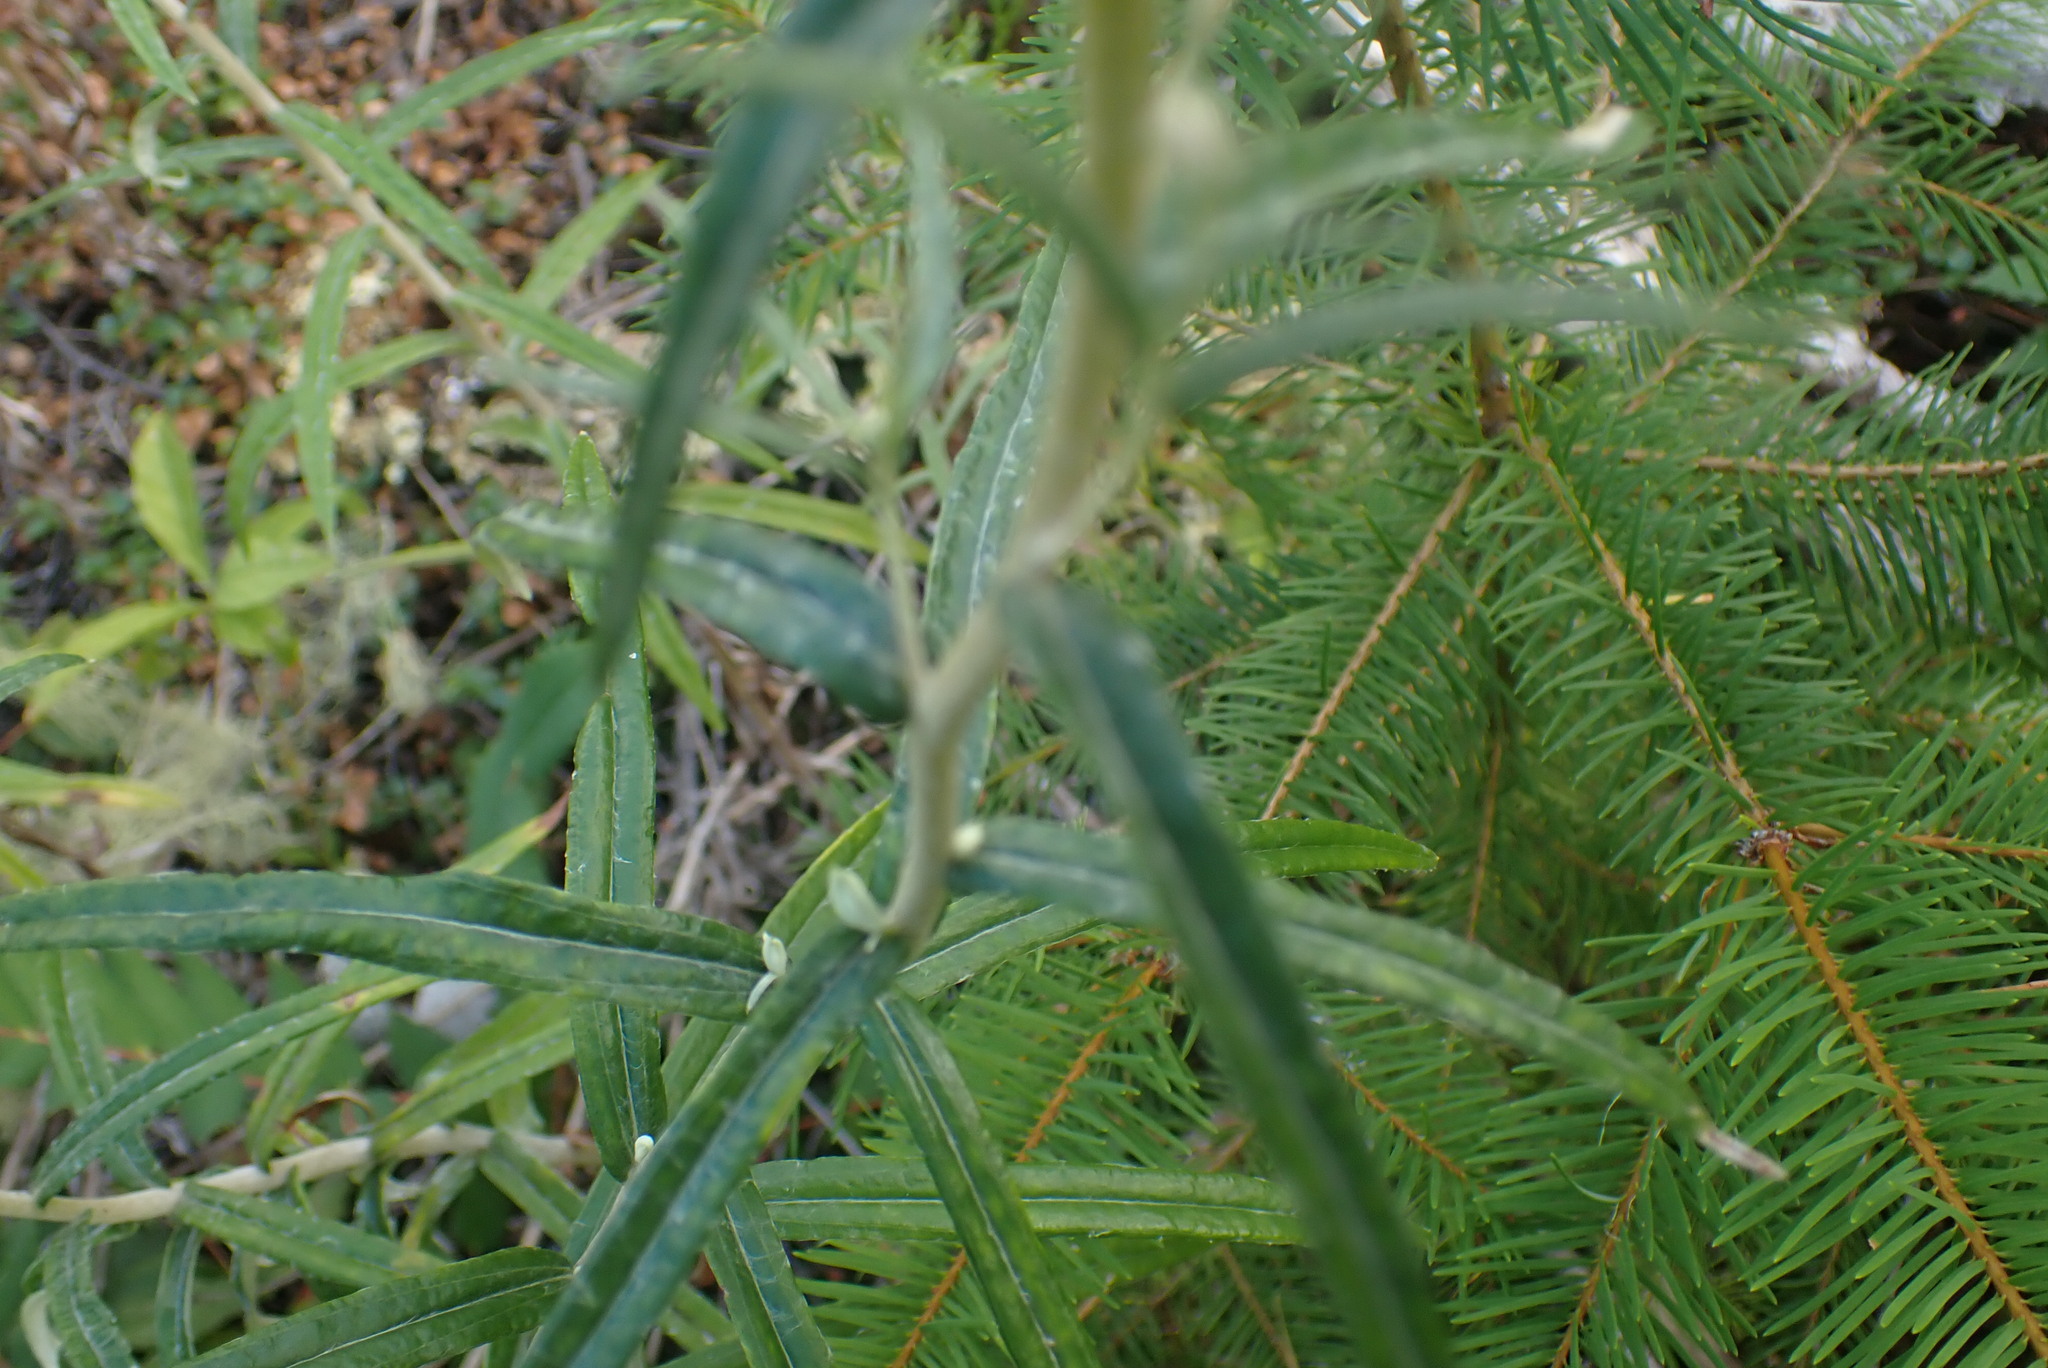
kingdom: Plantae
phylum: Tracheophyta
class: Magnoliopsida
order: Asterales
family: Asteraceae
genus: Anaphalis
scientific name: Anaphalis margaritacea
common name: Pearly everlasting
